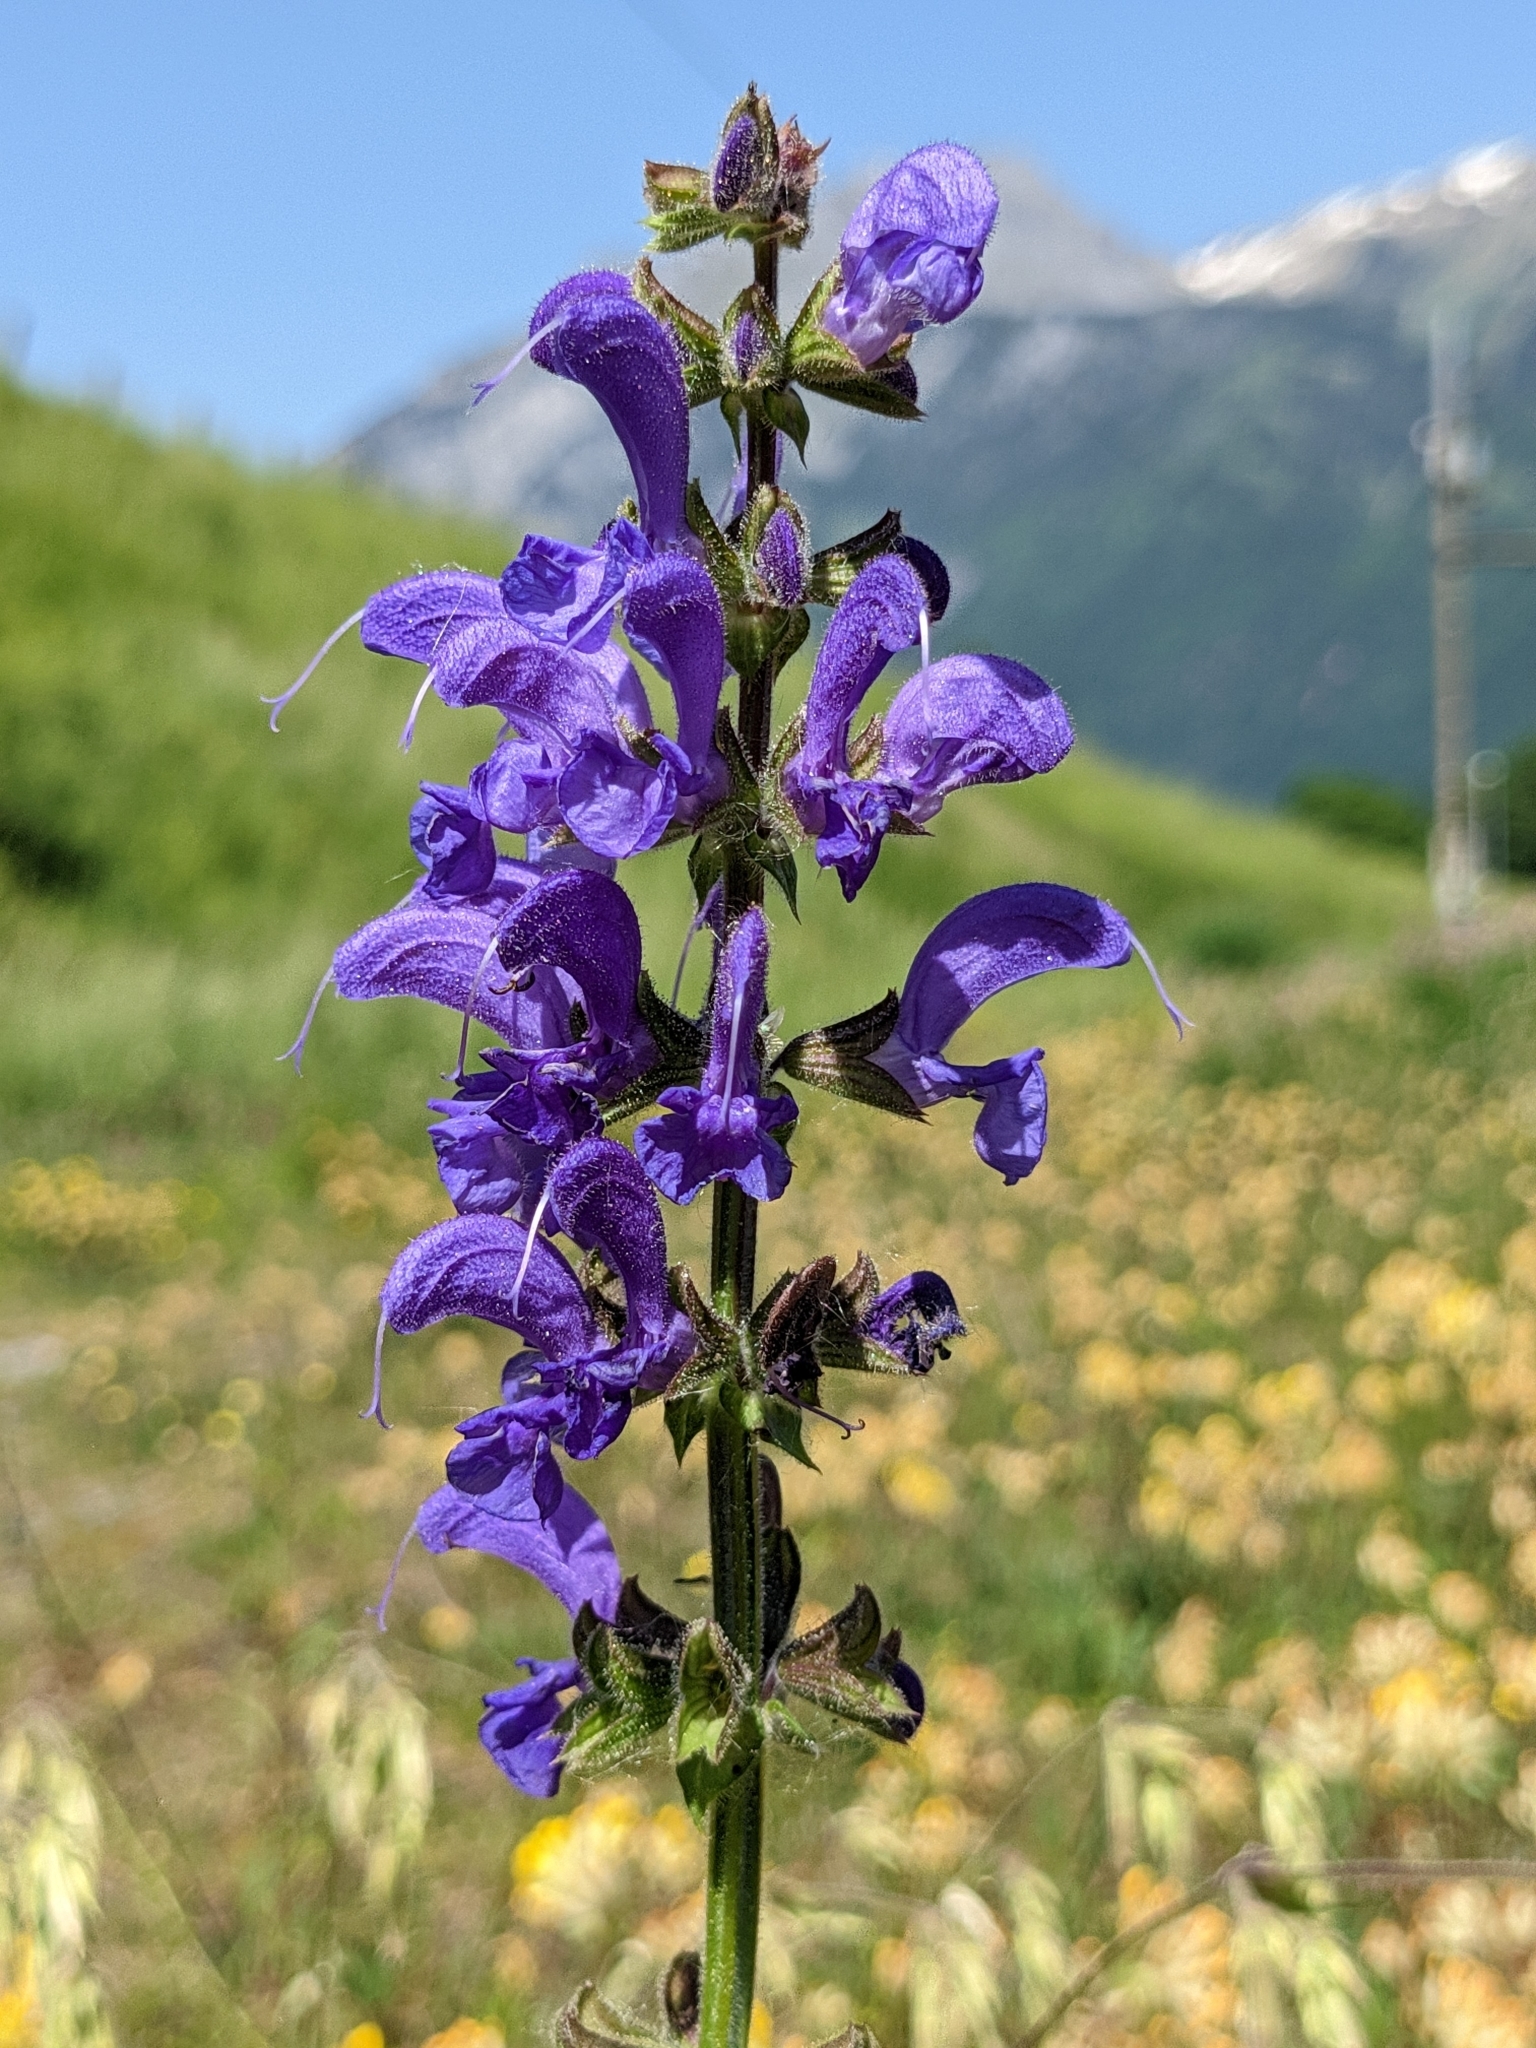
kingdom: Plantae
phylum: Tracheophyta
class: Magnoliopsida
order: Lamiales
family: Lamiaceae
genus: Salvia
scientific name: Salvia pratensis
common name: Meadow sage
